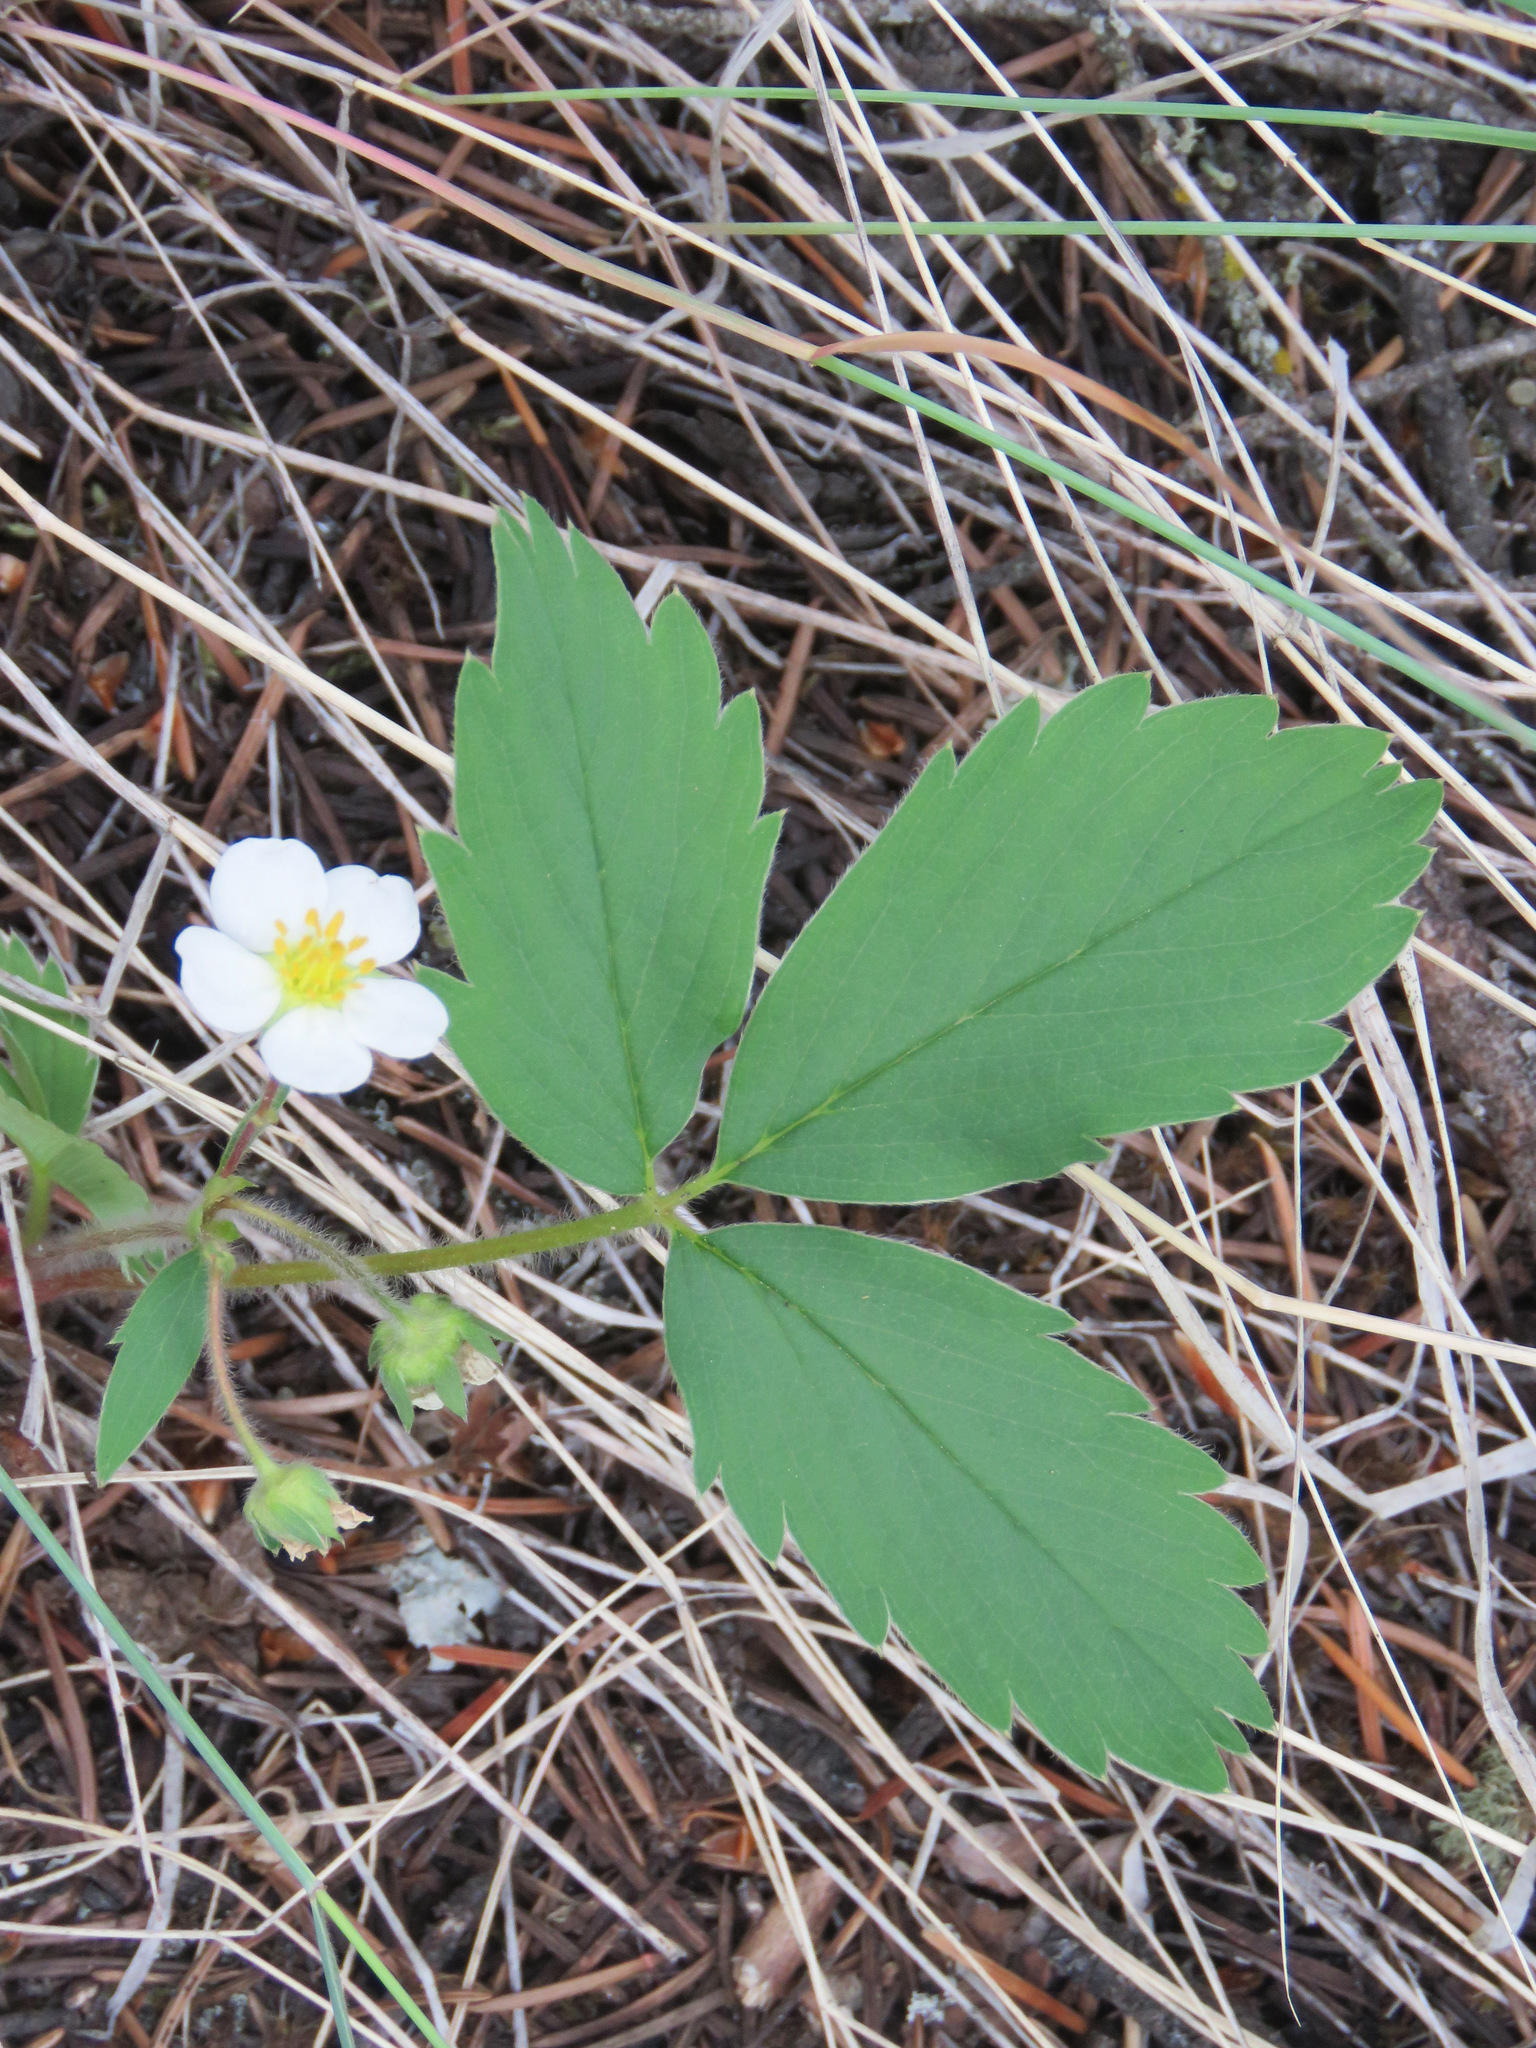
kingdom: Plantae
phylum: Tracheophyta
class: Magnoliopsida
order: Rosales
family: Rosaceae
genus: Fragaria
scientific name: Fragaria virginiana
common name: Thickleaved wild strawberry
